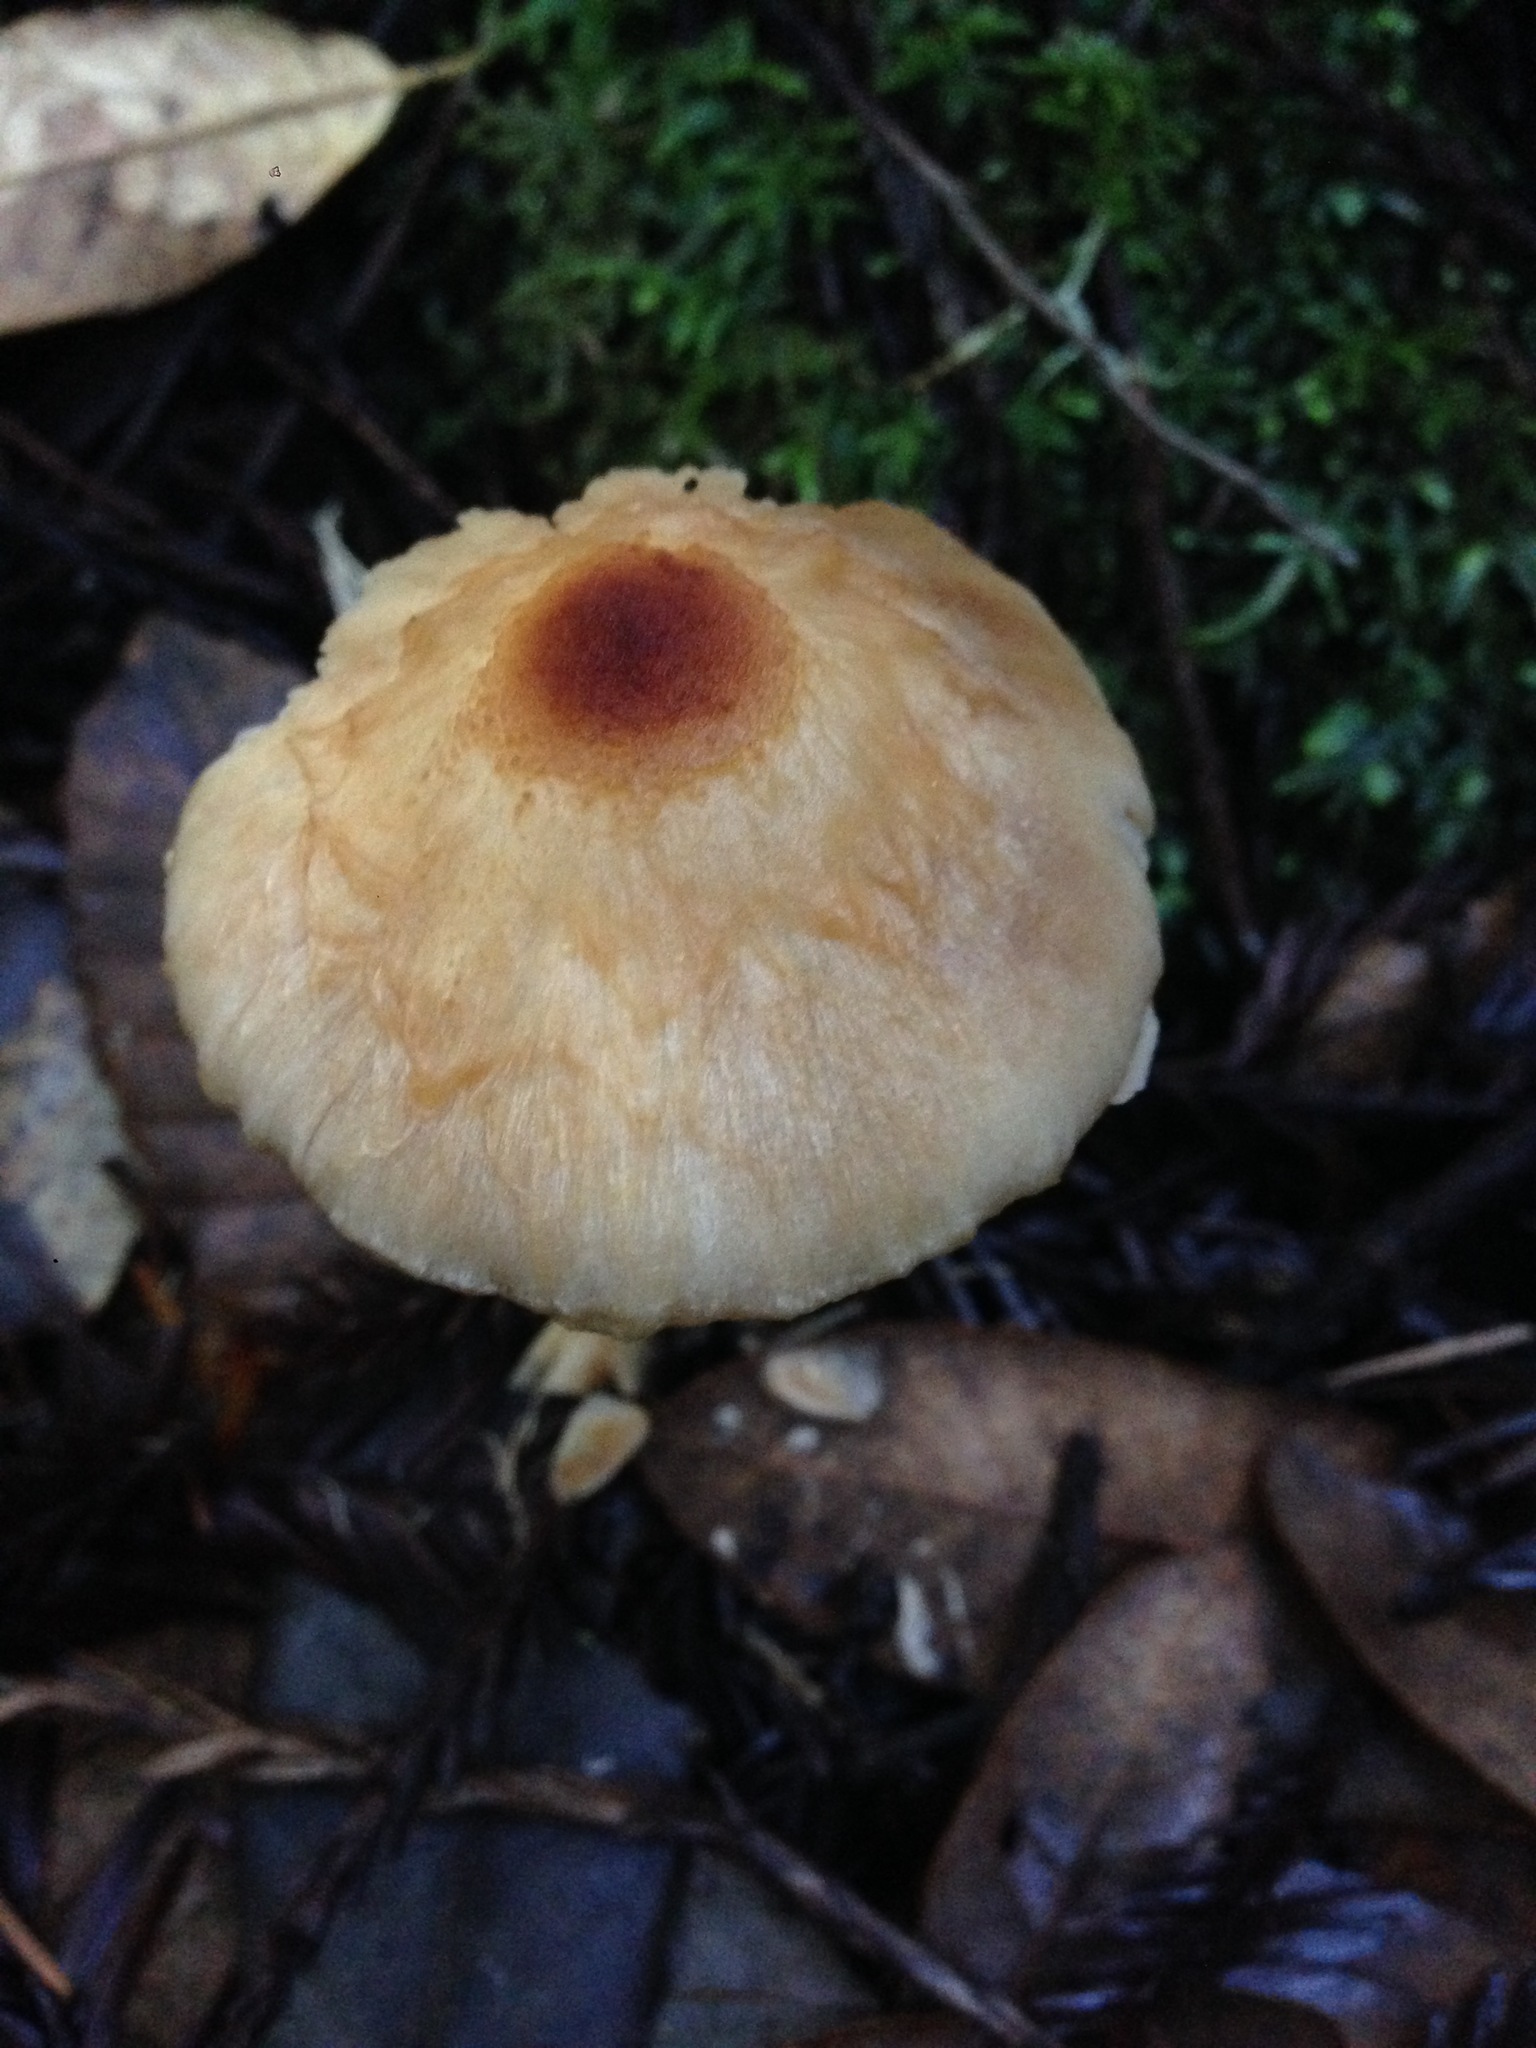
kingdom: Fungi
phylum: Basidiomycota
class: Agaricomycetes
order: Agaricales
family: Agaricaceae
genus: Lepiota
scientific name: Lepiota magnispora
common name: Yellowfoot dapperling
